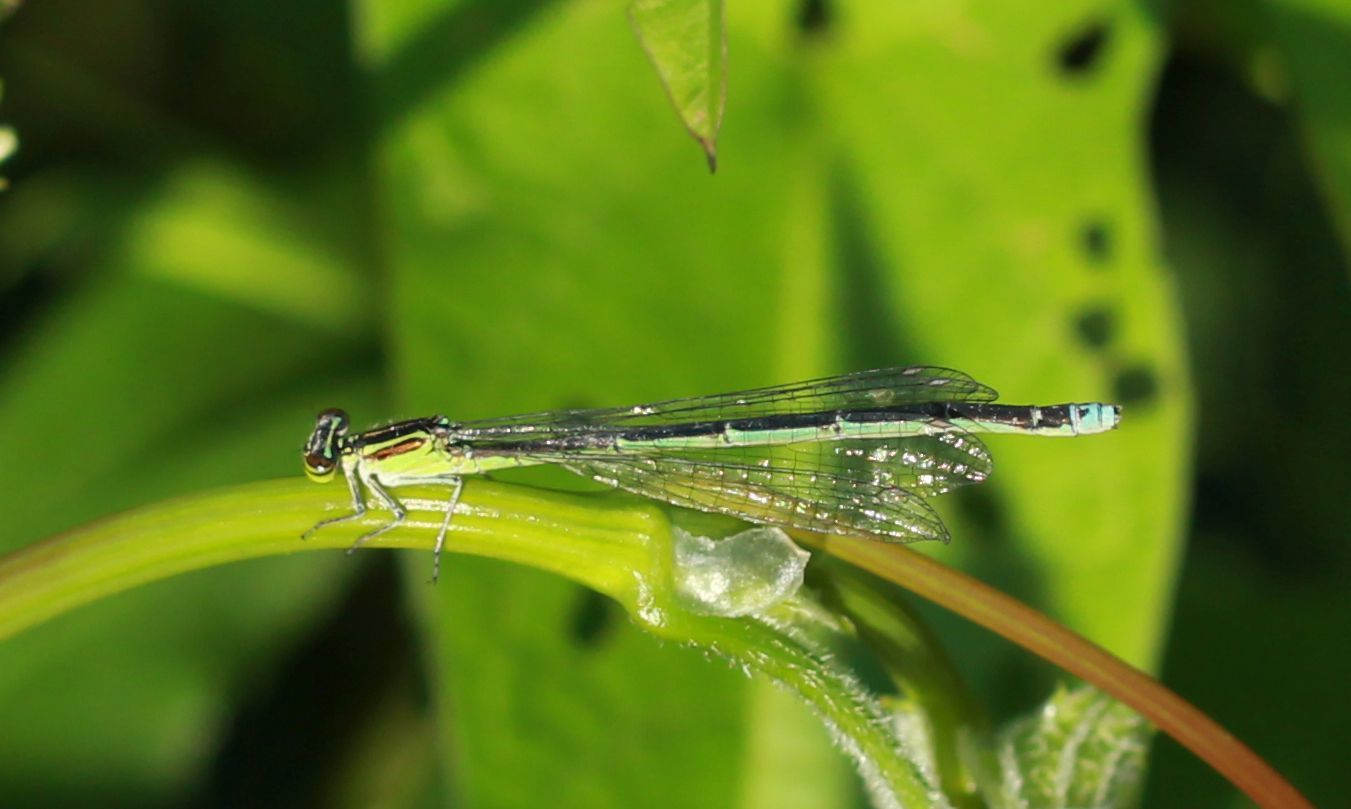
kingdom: Animalia
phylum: Arthropoda
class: Insecta
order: Odonata
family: Coenagrionidae
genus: Enallagma
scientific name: Enallagma exsulans
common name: Stream bluet
